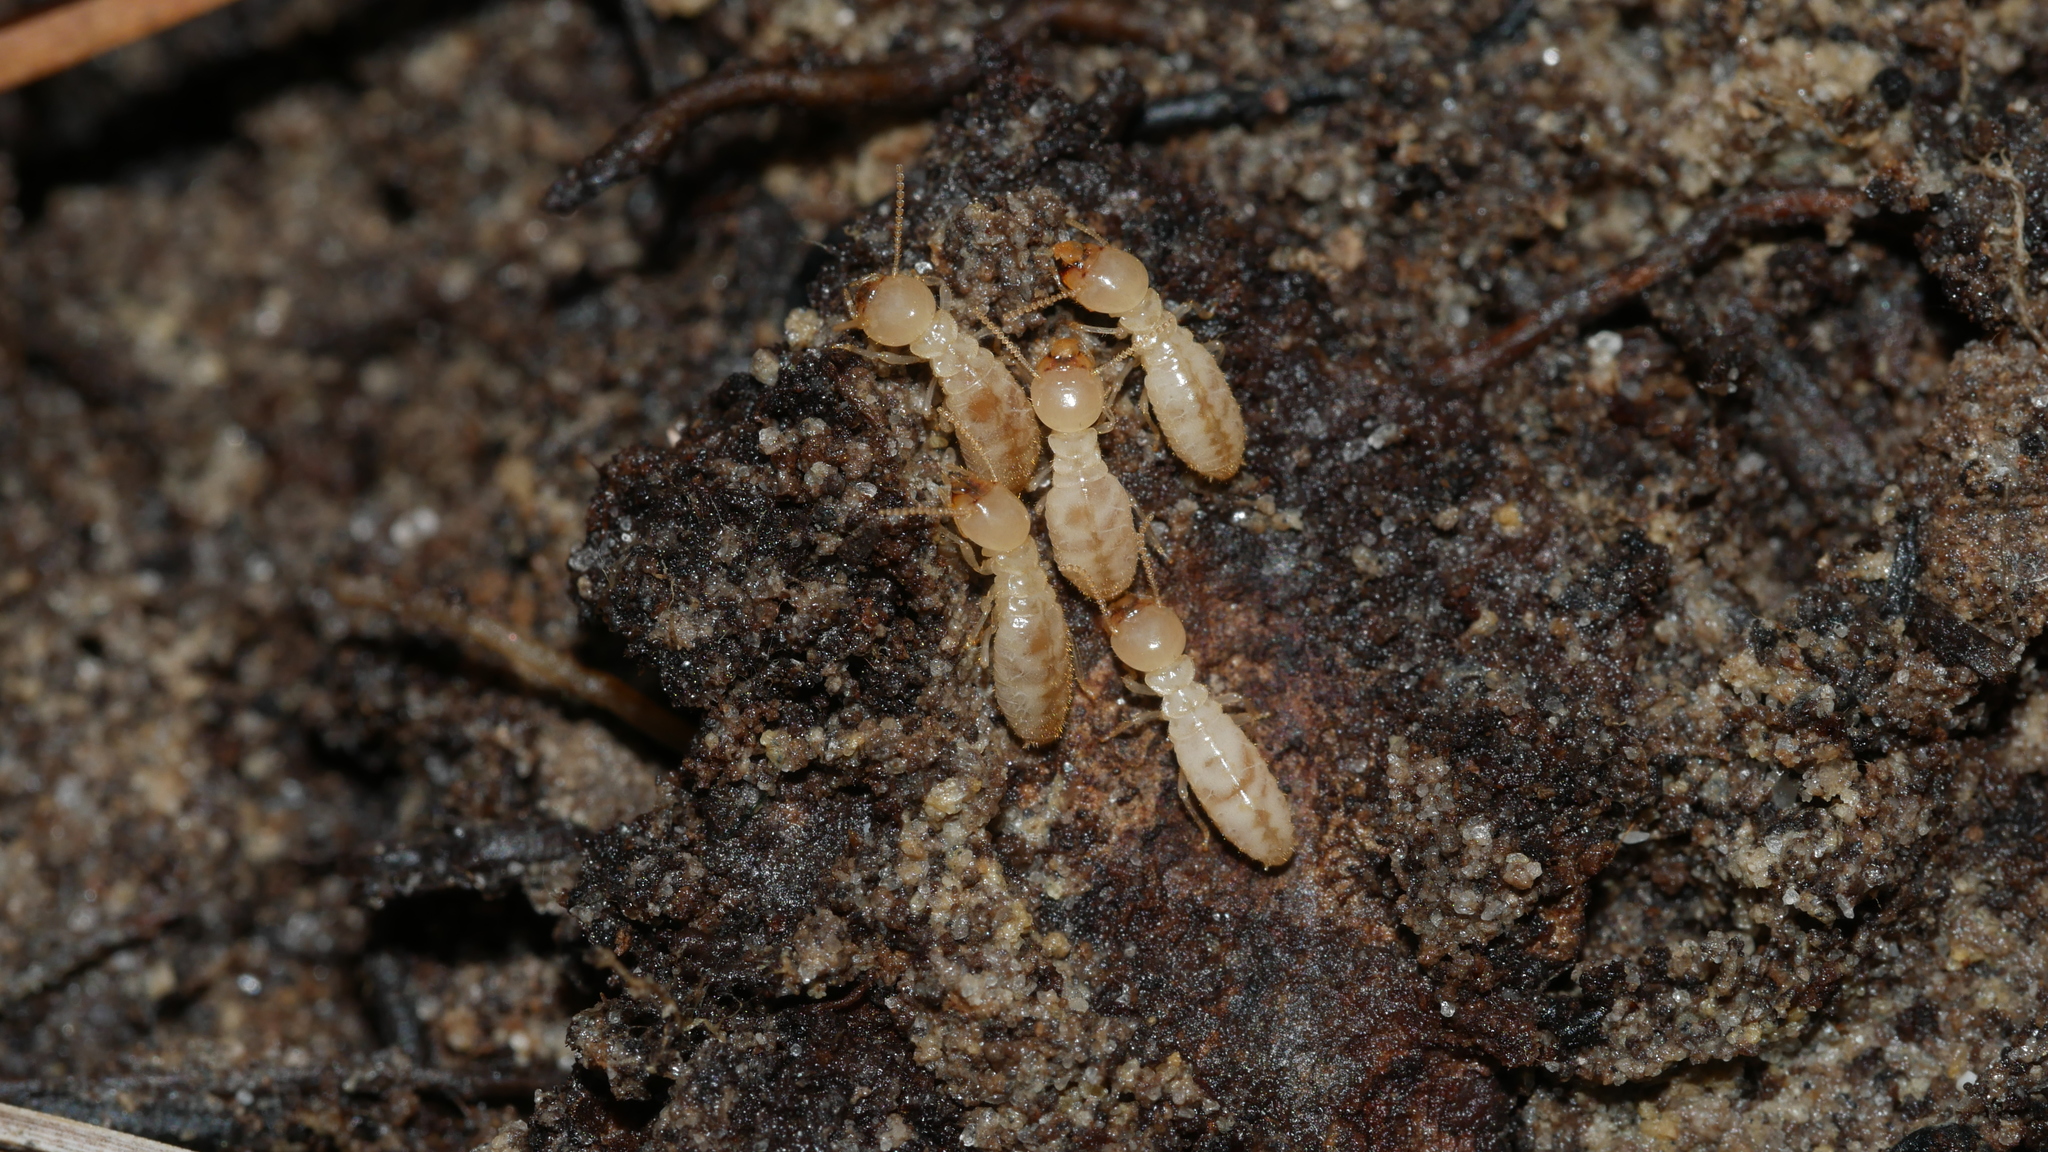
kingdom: Animalia
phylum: Arthropoda
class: Insecta
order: Blattodea
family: Rhinotermitidae
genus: Reticulitermes
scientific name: Reticulitermes flavipes
